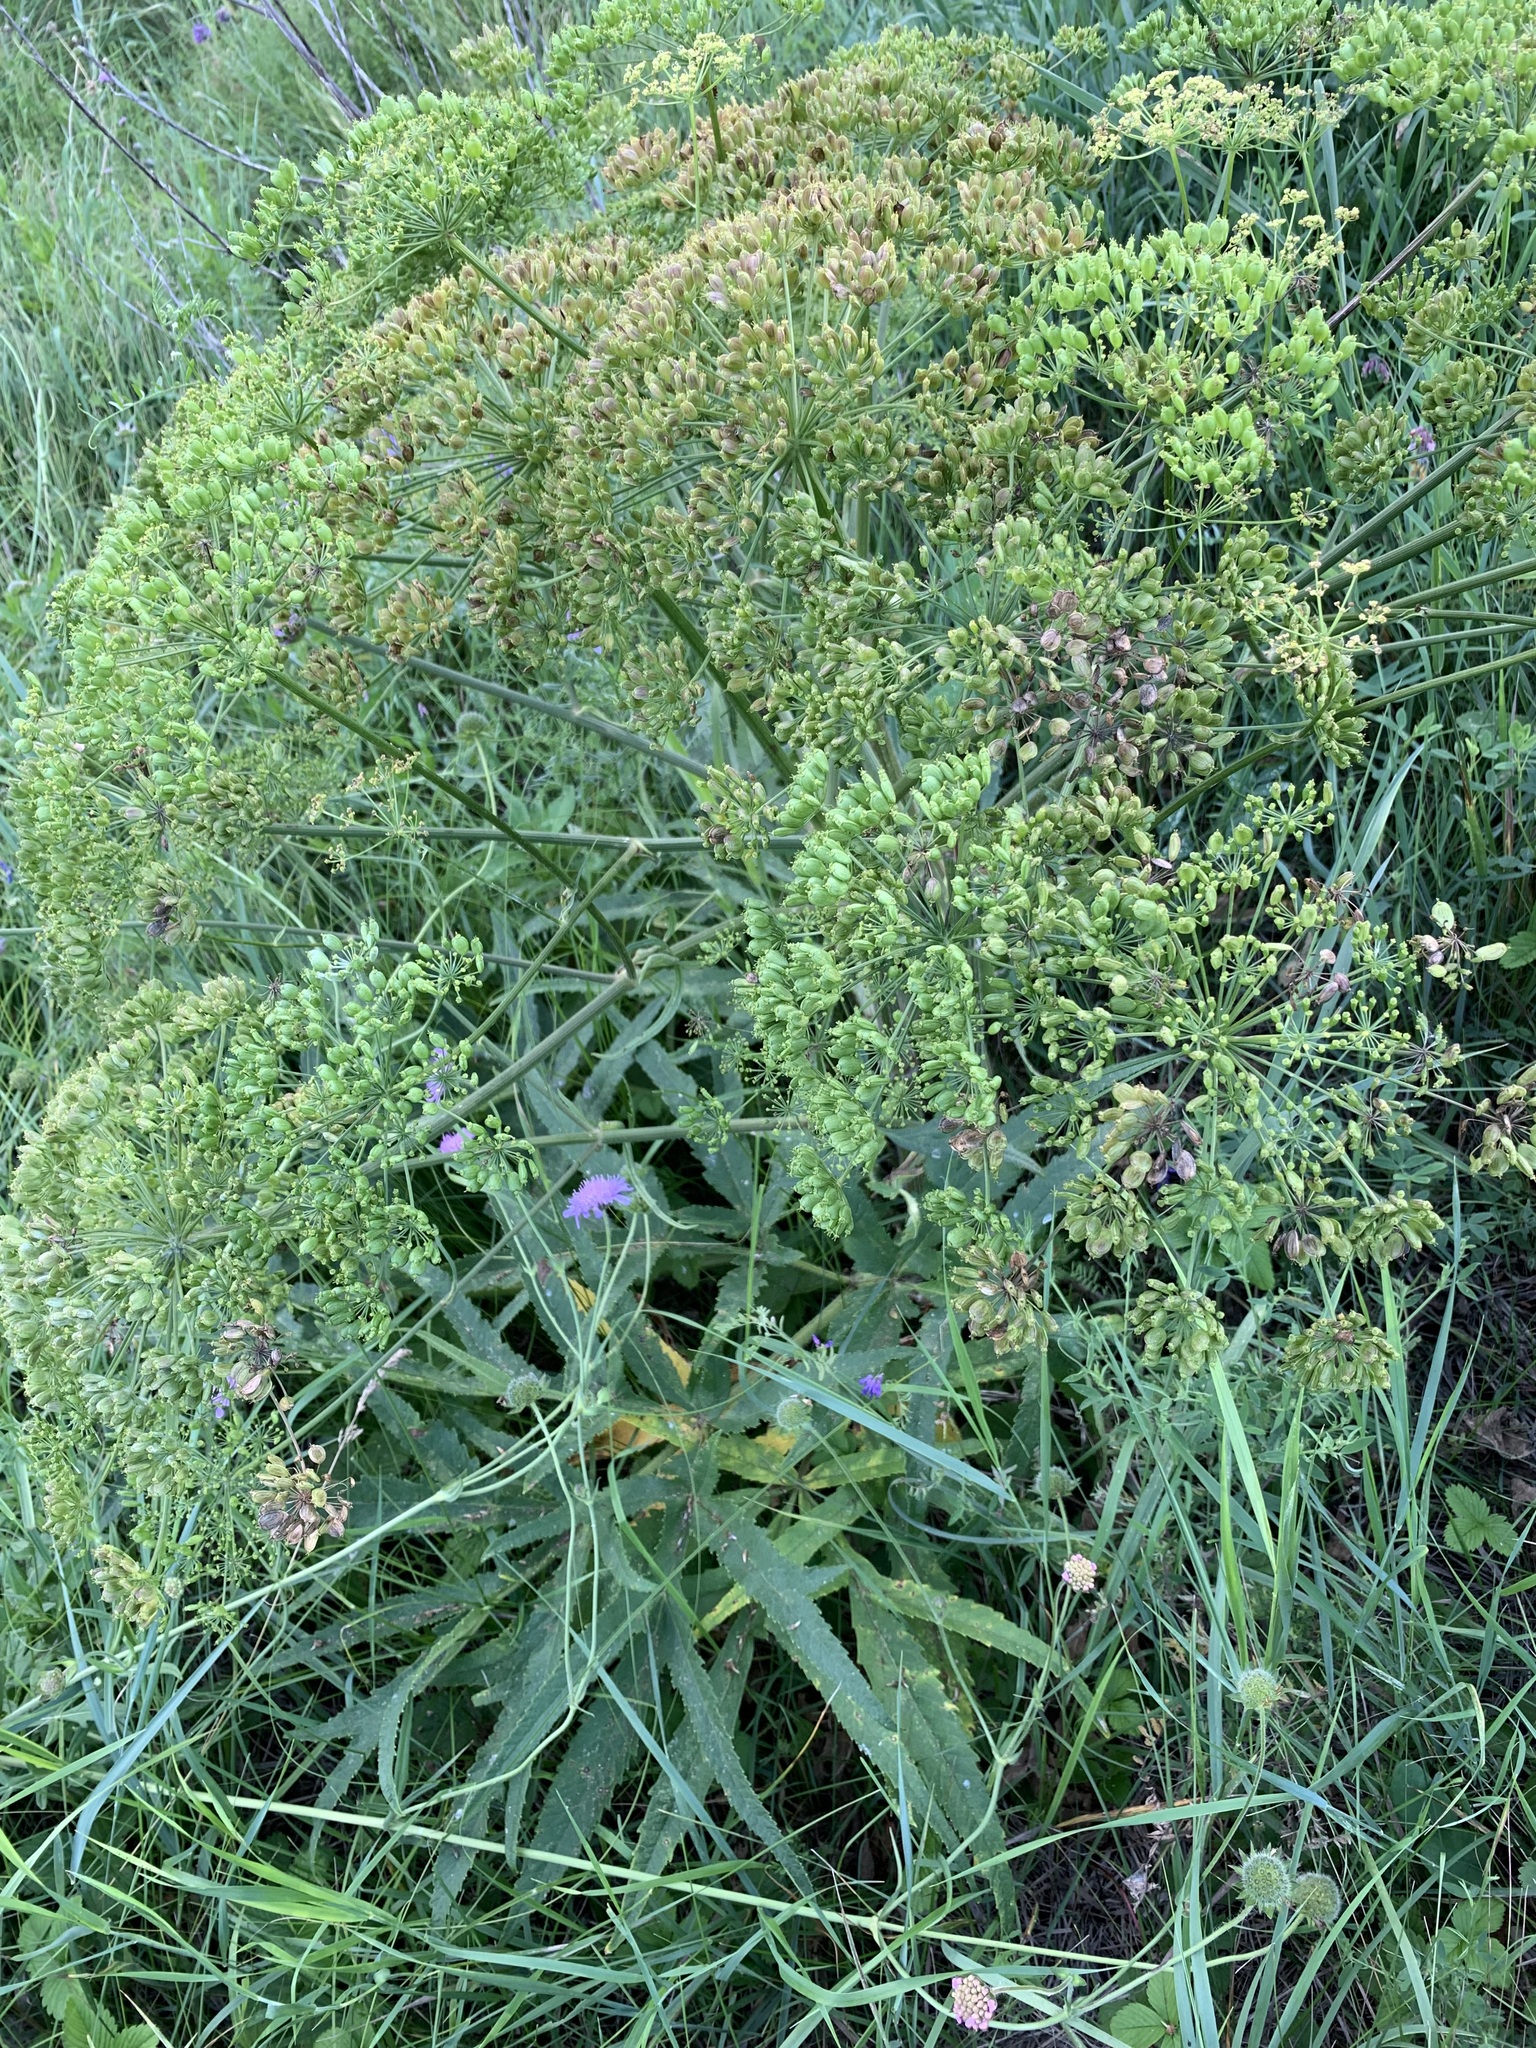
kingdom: Plantae
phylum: Tracheophyta
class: Magnoliopsida
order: Apiales
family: Apiaceae
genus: Heracleum
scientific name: Heracleum sphondylium
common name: Hogweed
